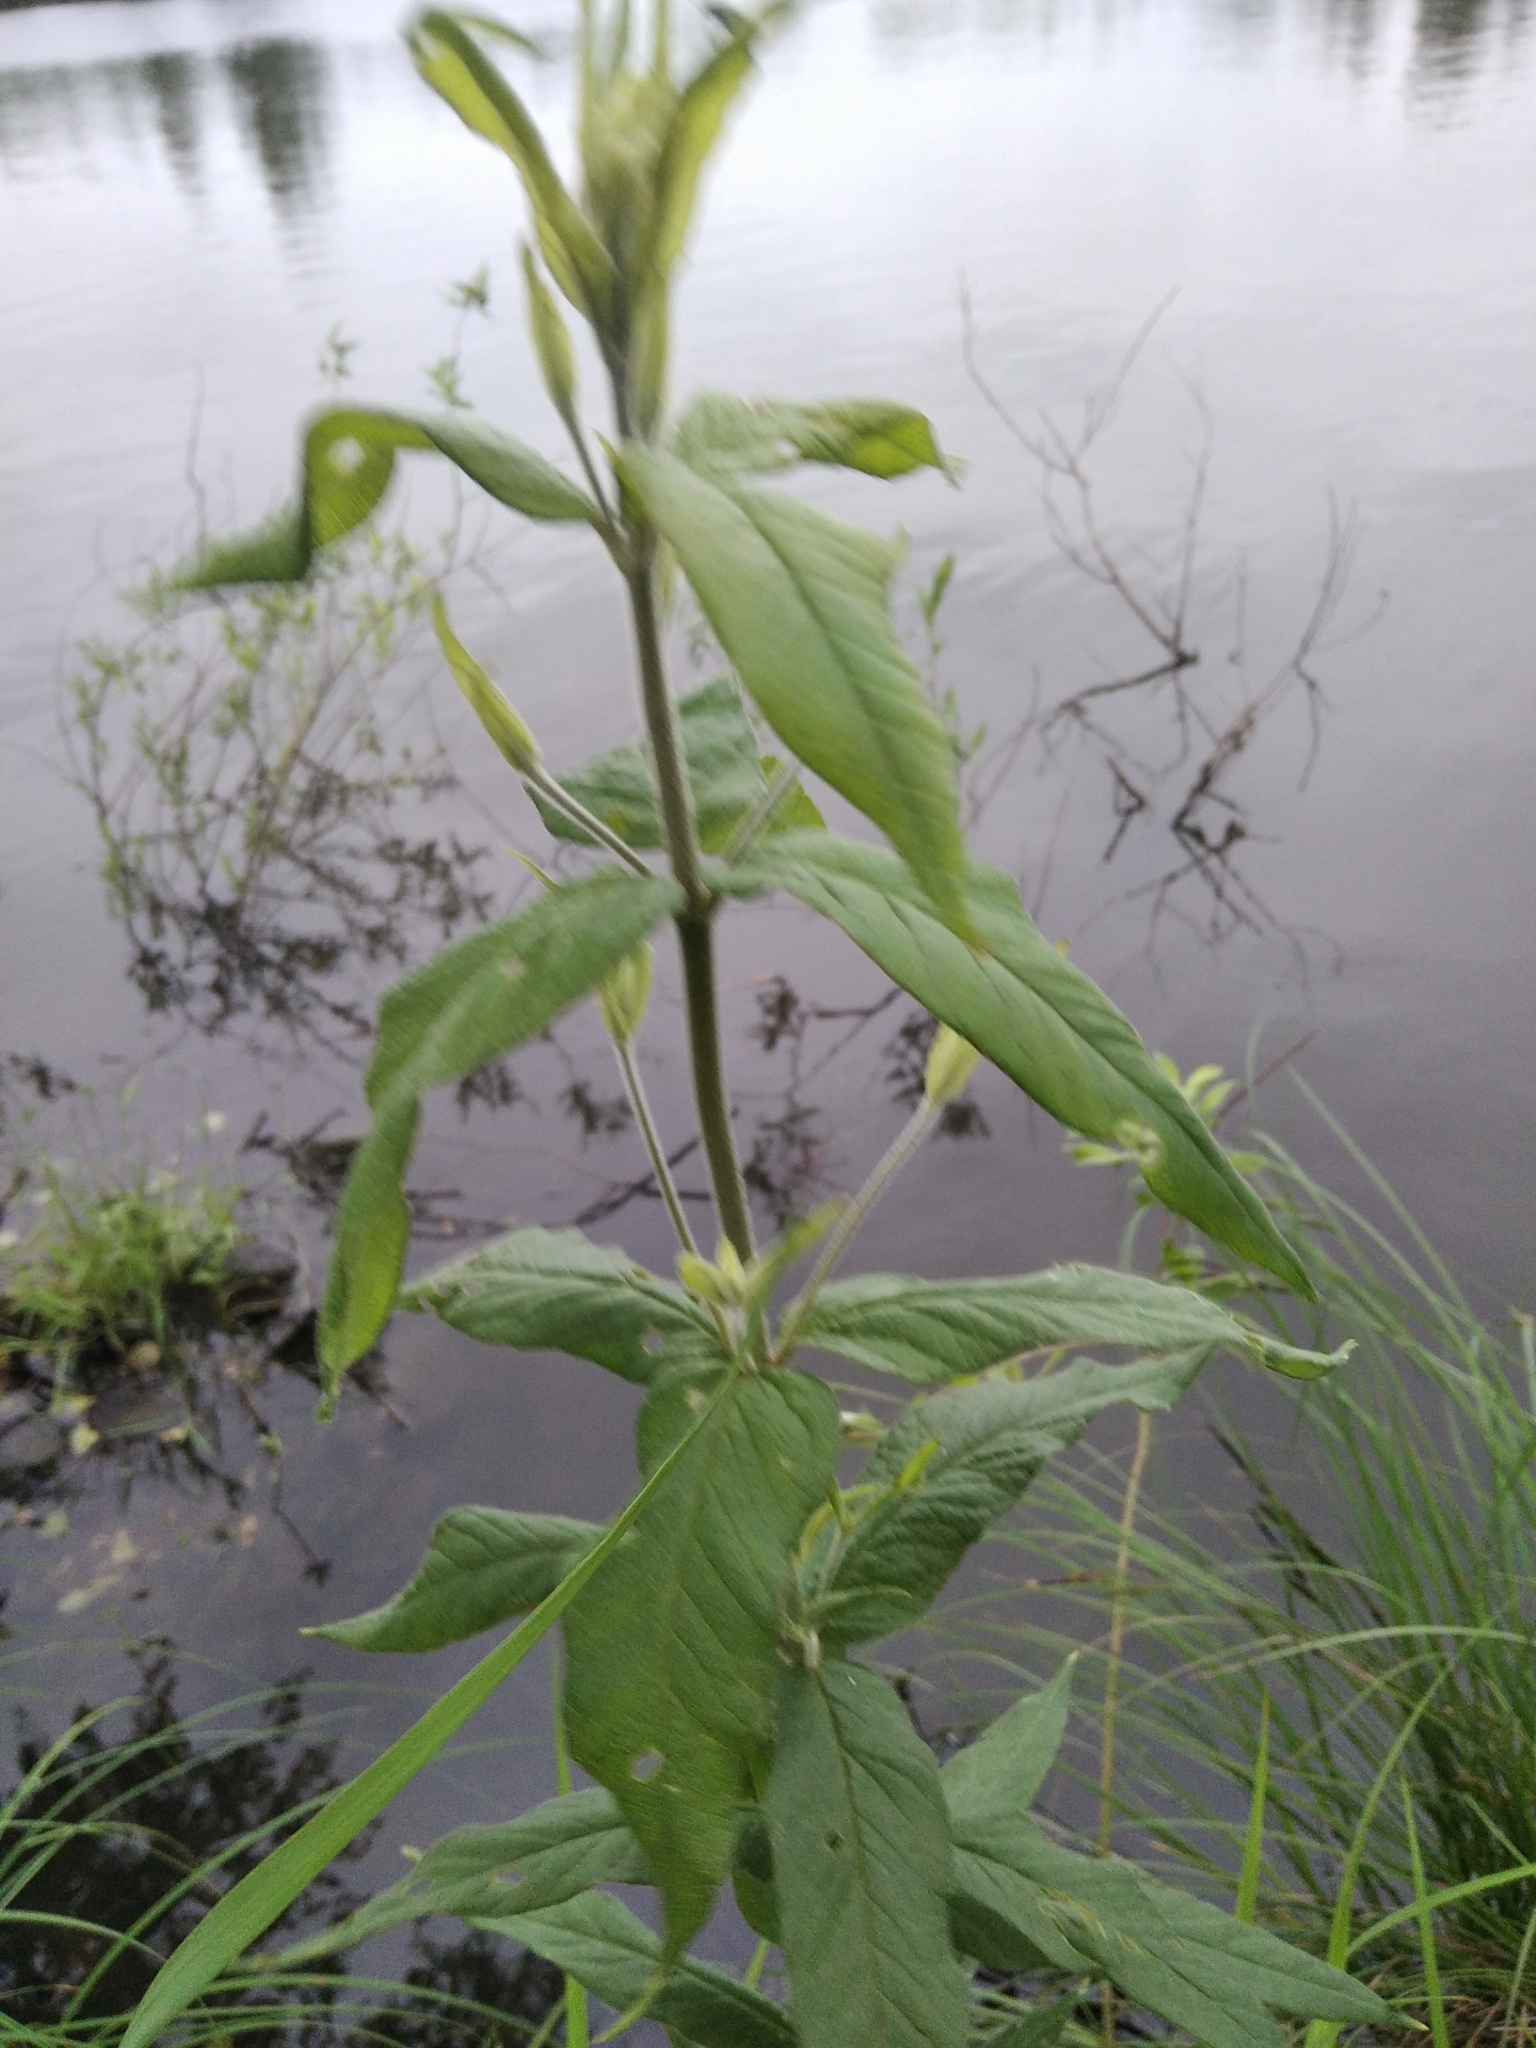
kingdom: Plantae
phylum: Tracheophyta
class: Magnoliopsida
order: Ericales
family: Primulaceae
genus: Lysimachia
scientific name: Lysimachia vulgaris
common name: Yellow loosestrife
